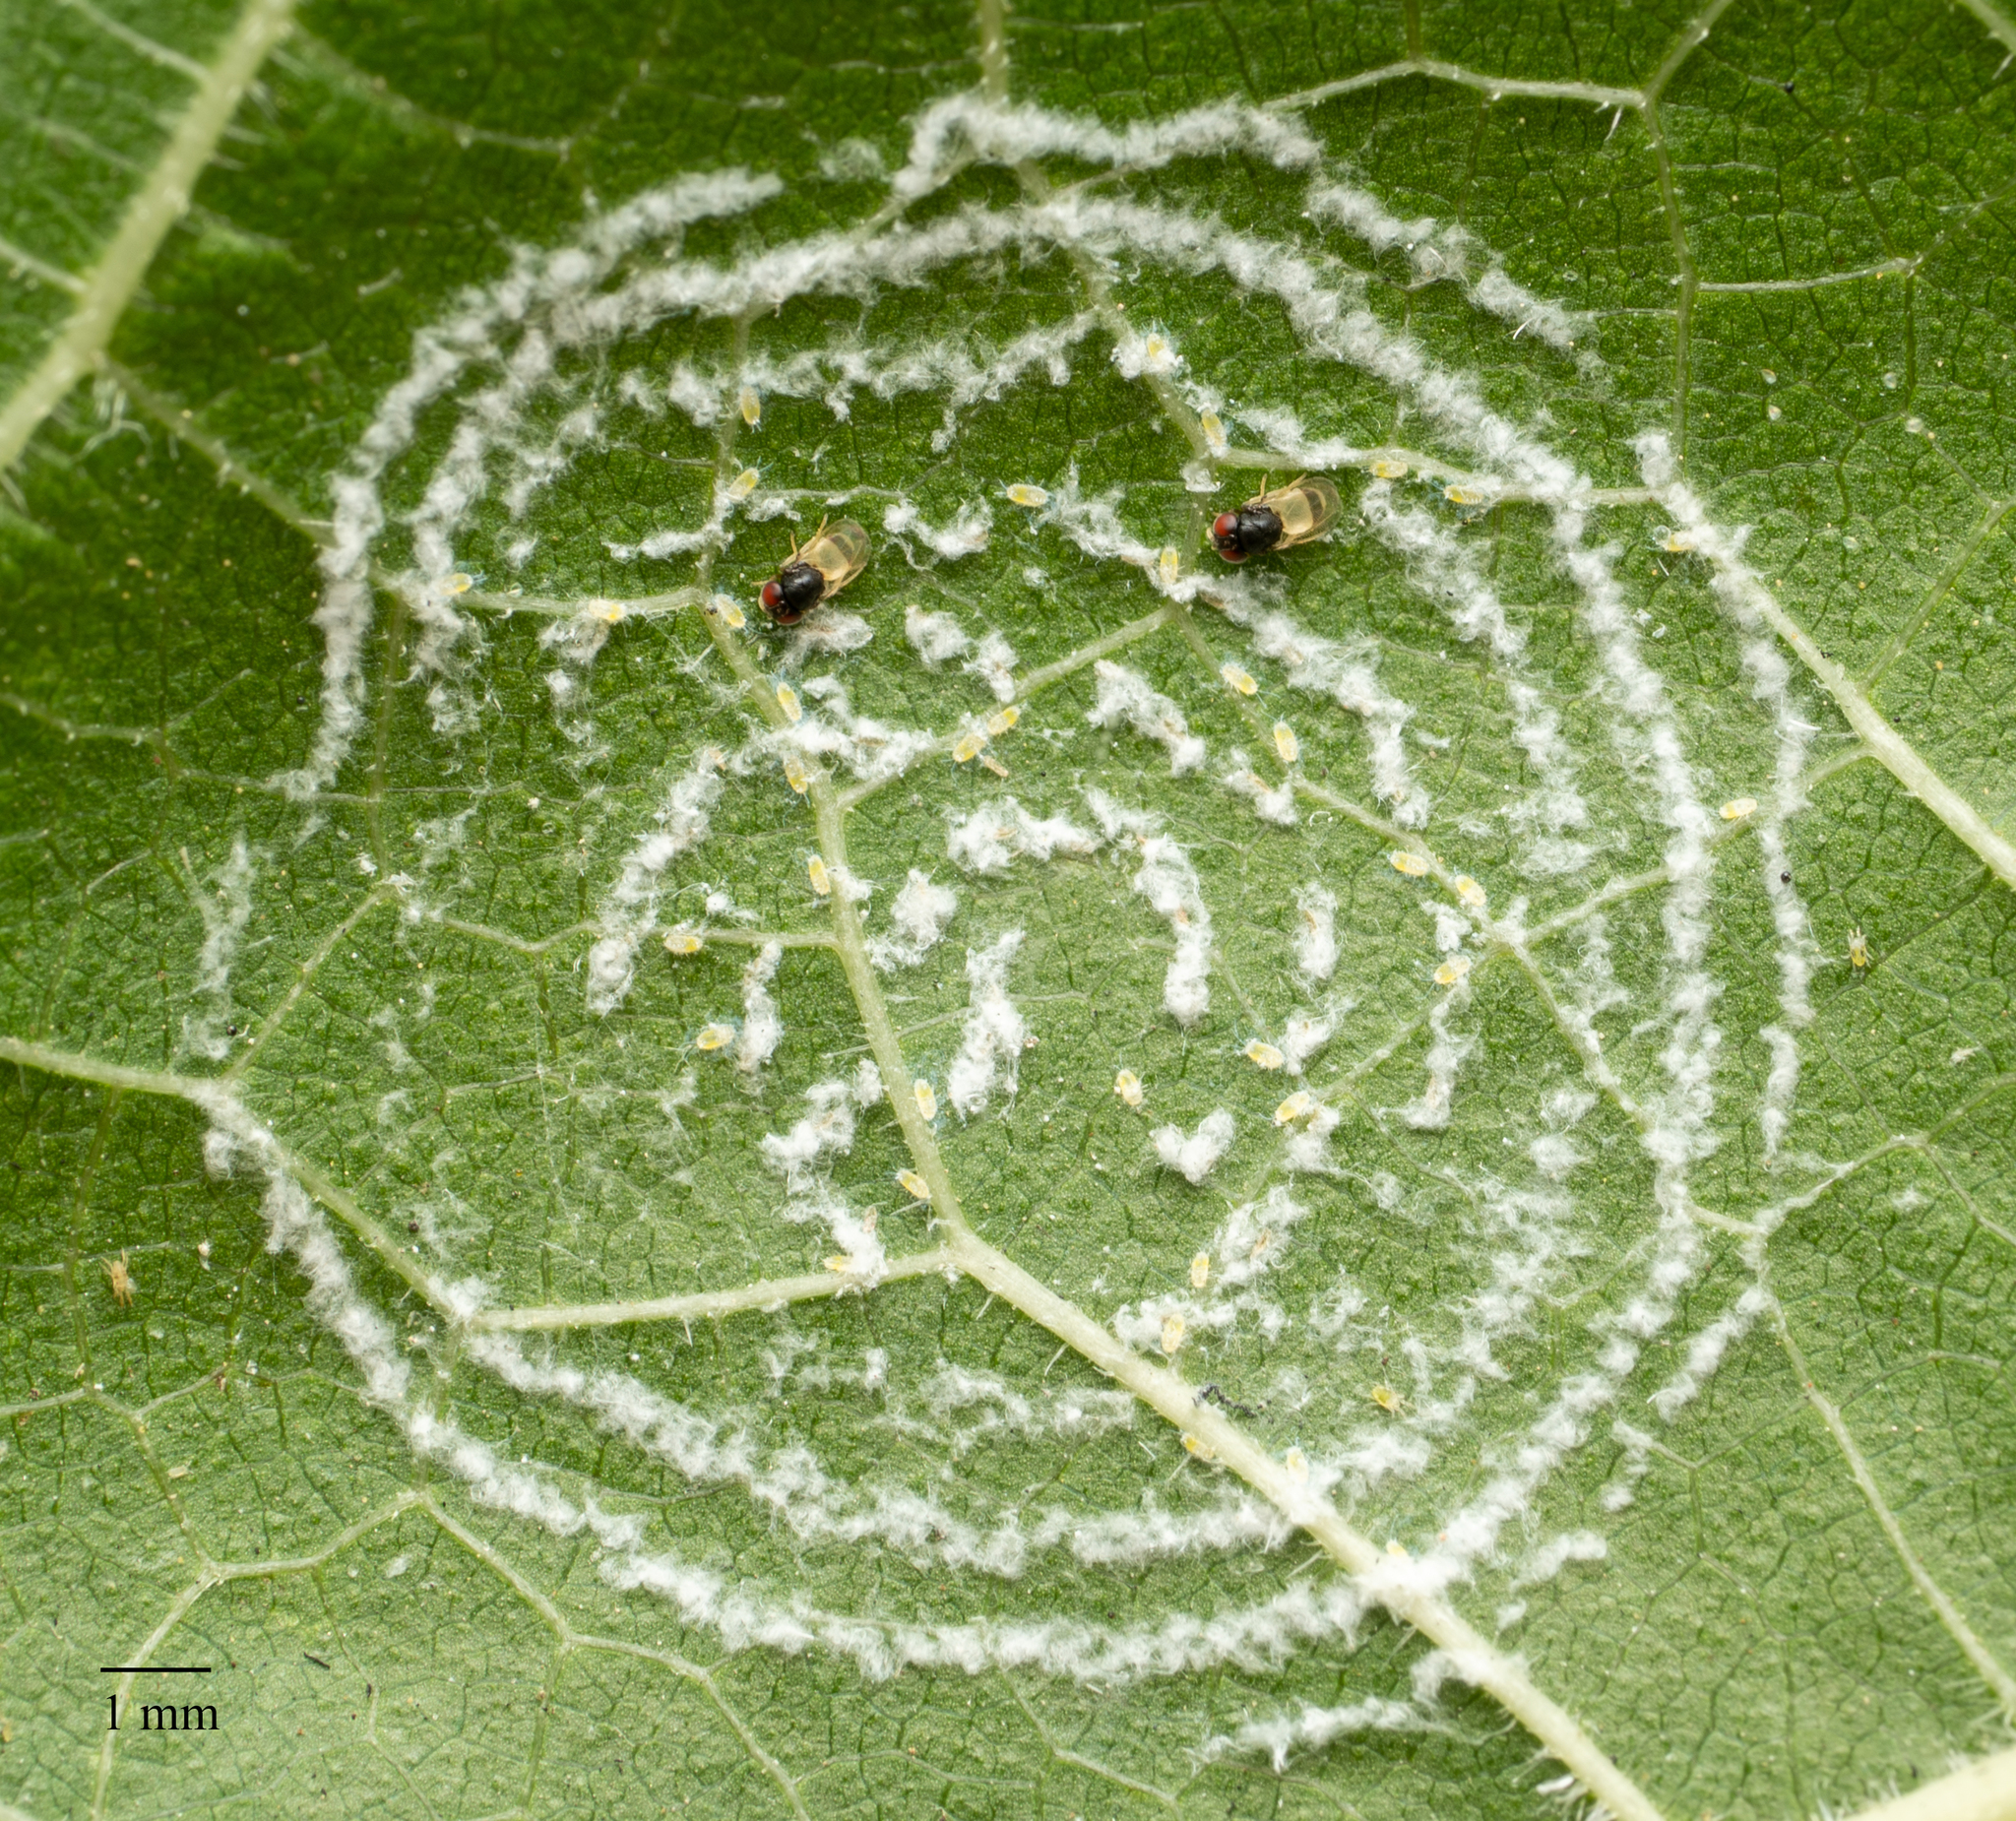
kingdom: Animalia
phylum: Arthropoda
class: Insecta
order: Hemiptera
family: Aleyrodidae
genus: Aleurodicus
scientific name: Aleurodicus dugesii
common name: Giant whitefly
